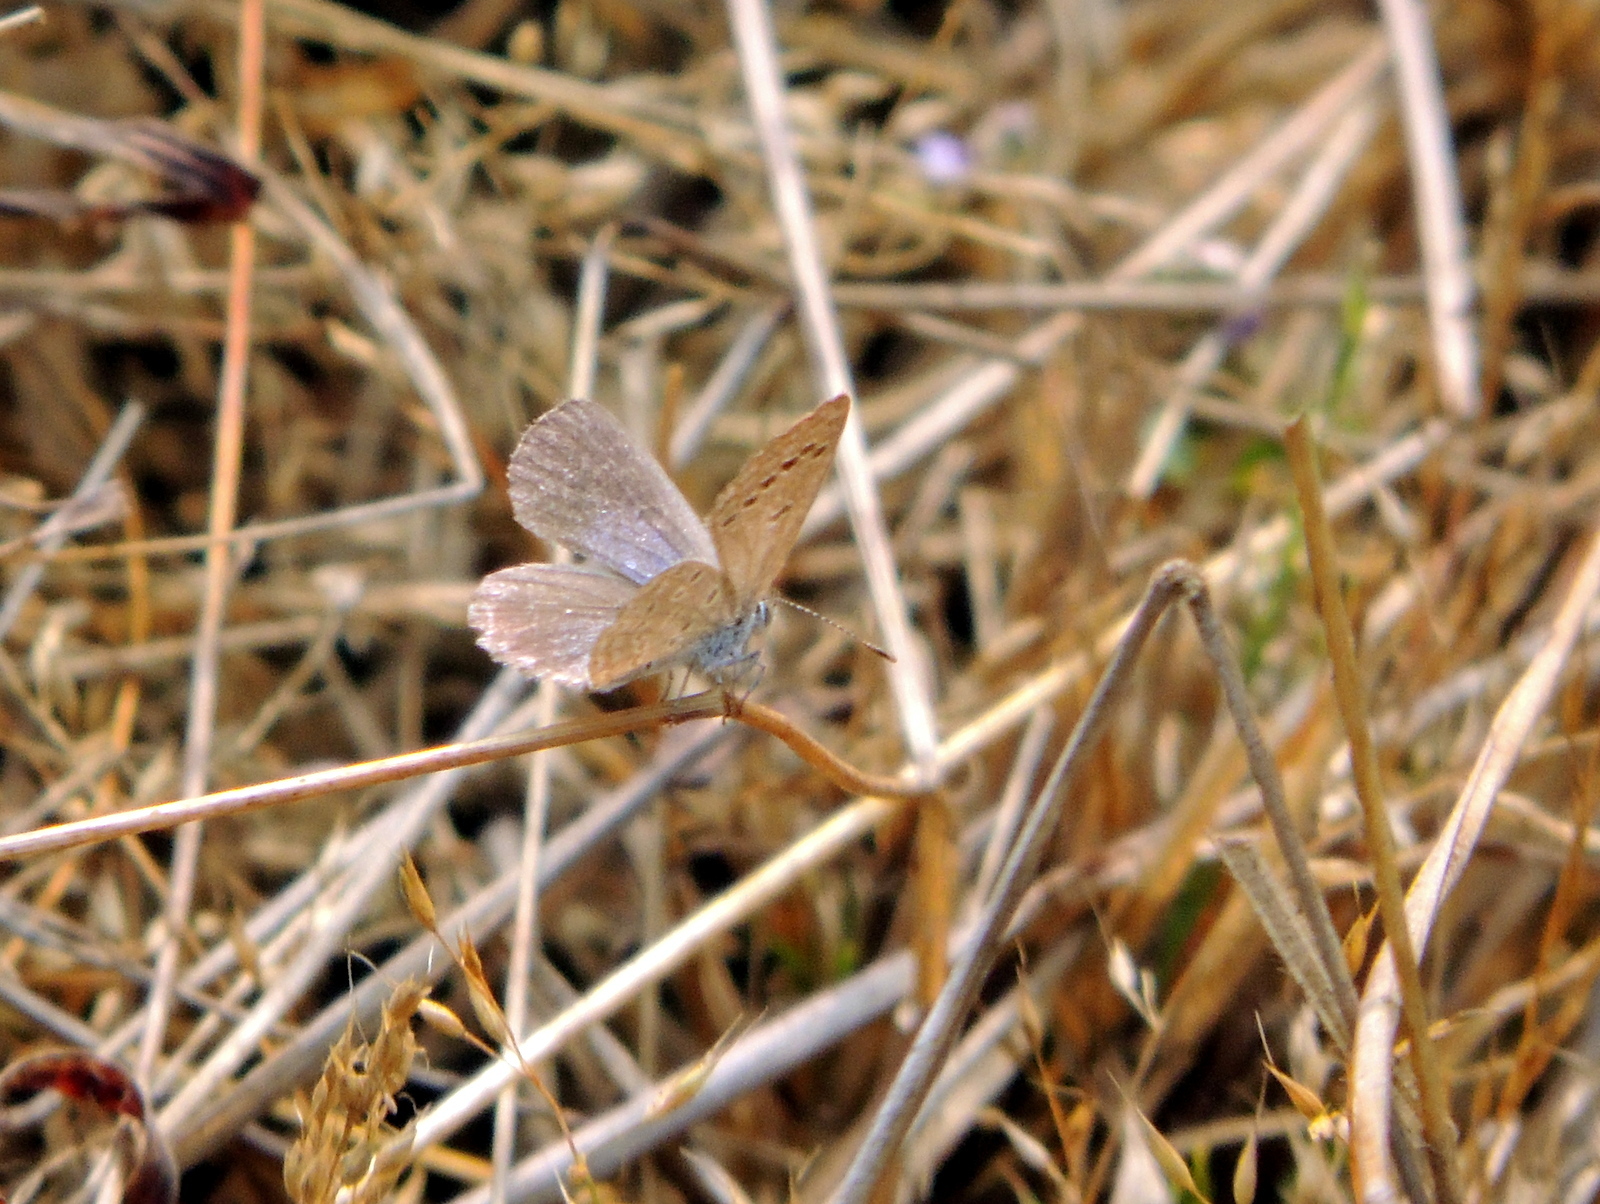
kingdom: Animalia
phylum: Arthropoda
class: Insecta
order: Lepidoptera
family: Lycaenidae
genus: Zizina
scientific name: Zizina otis
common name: Lesser grass blue
